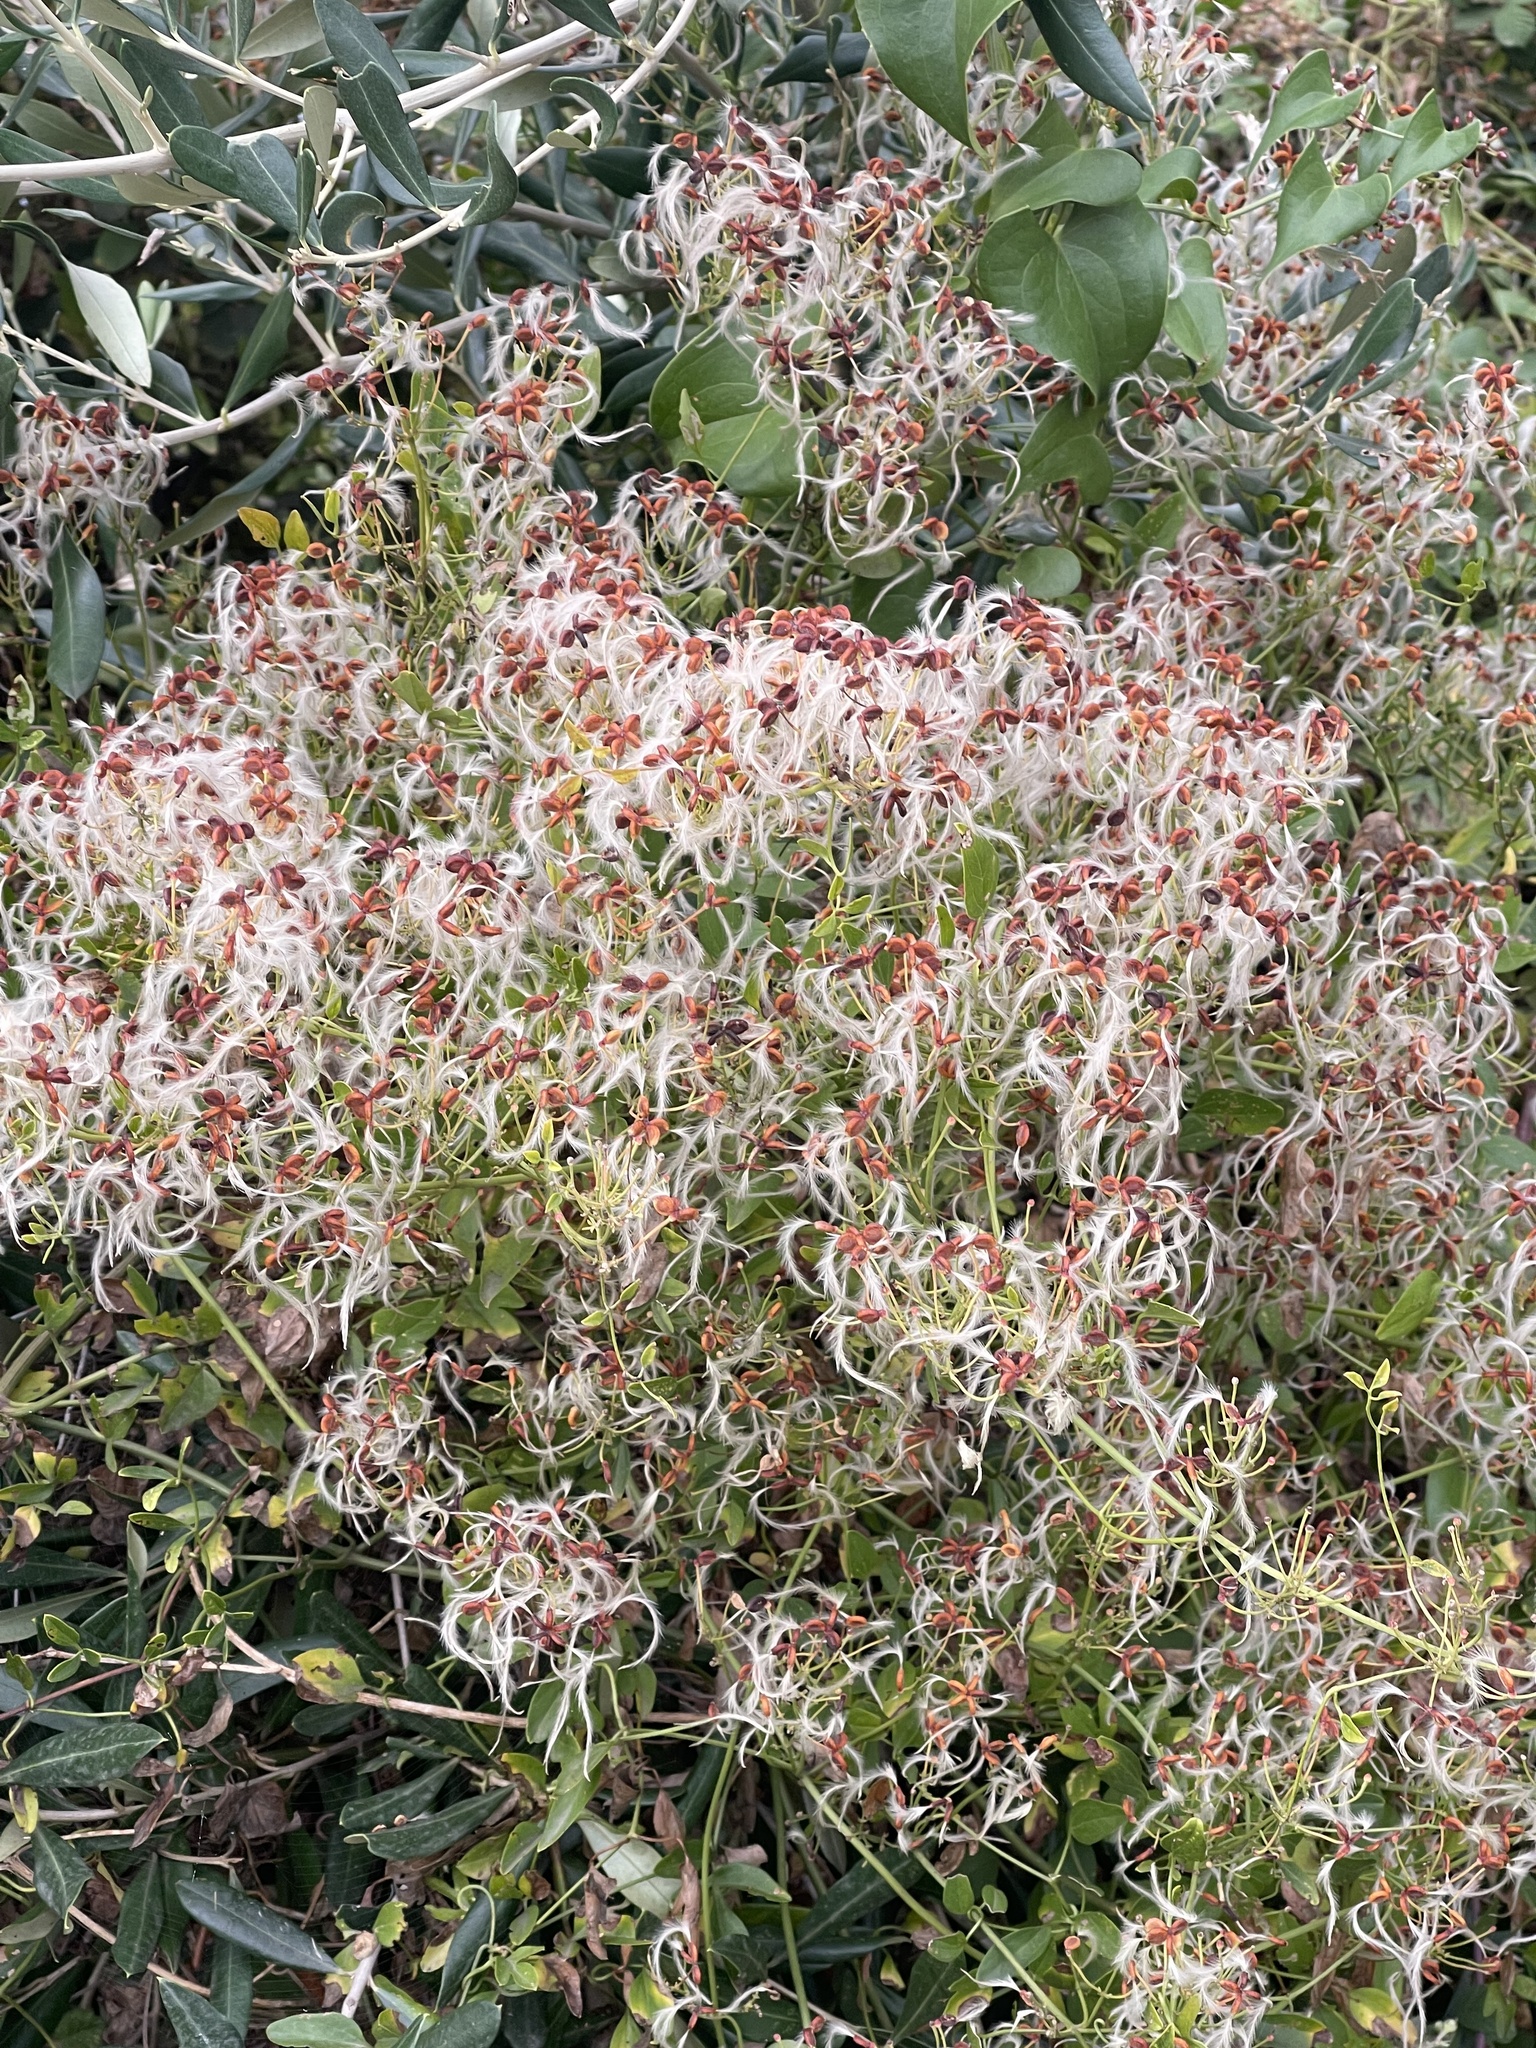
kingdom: Plantae
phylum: Tracheophyta
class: Magnoliopsida
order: Ranunculales
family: Ranunculaceae
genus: Clematis
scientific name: Clematis flammula
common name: Virgin's-bower
